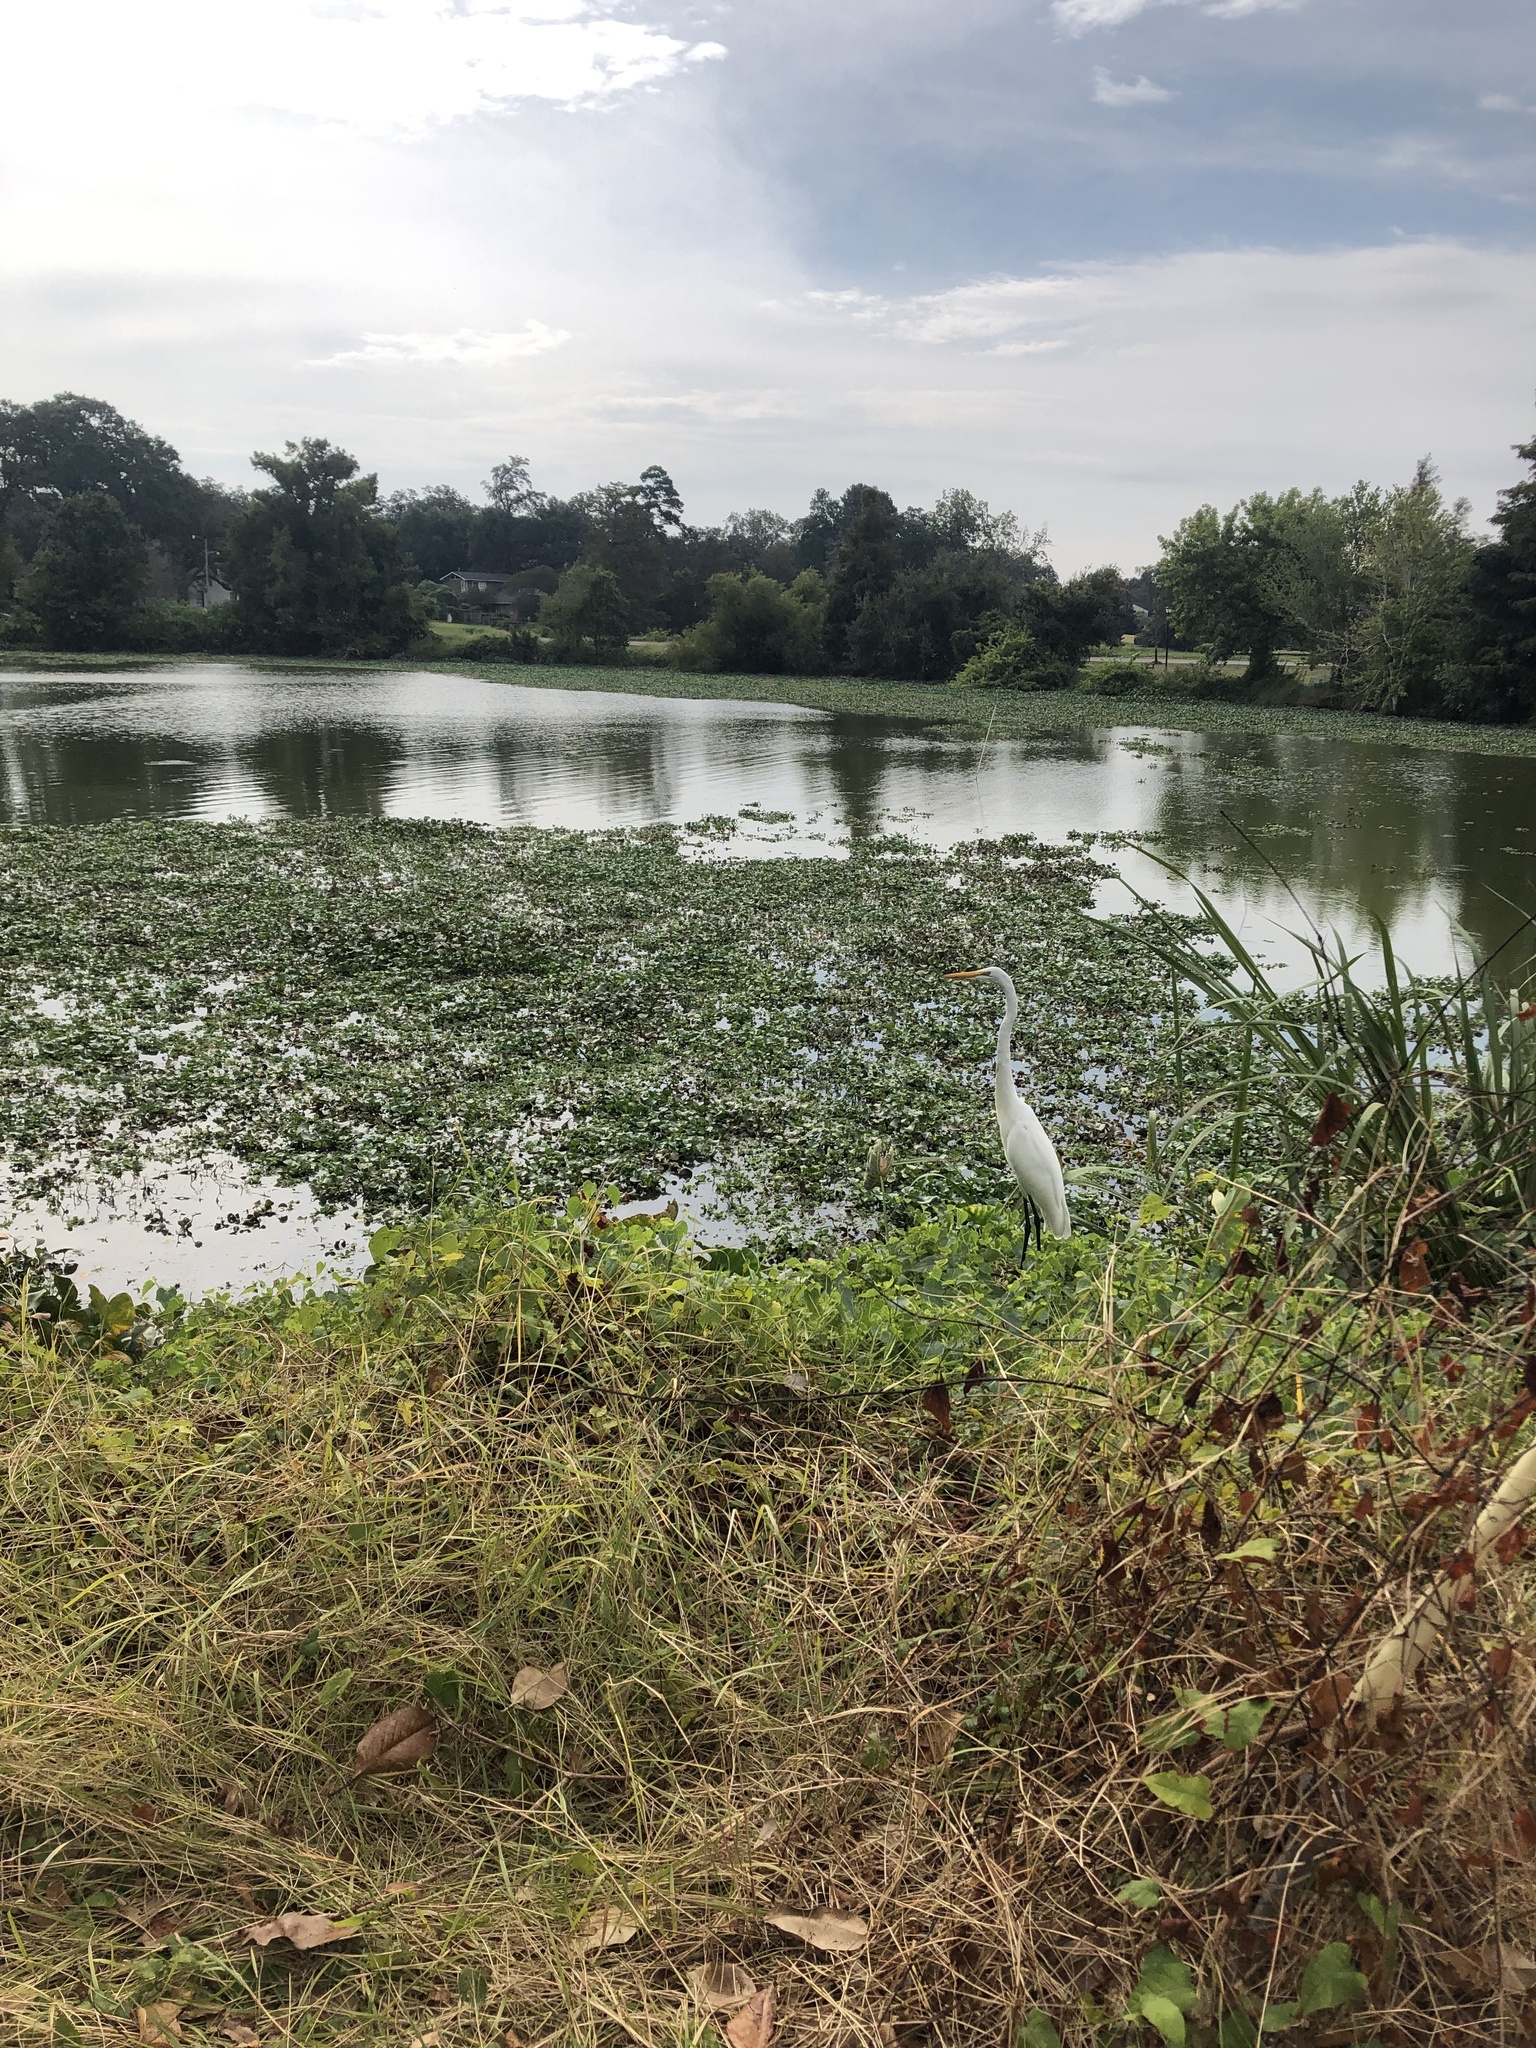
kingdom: Animalia
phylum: Chordata
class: Aves
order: Pelecaniformes
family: Ardeidae
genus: Ardea
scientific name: Ardea alba
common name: Great egret
